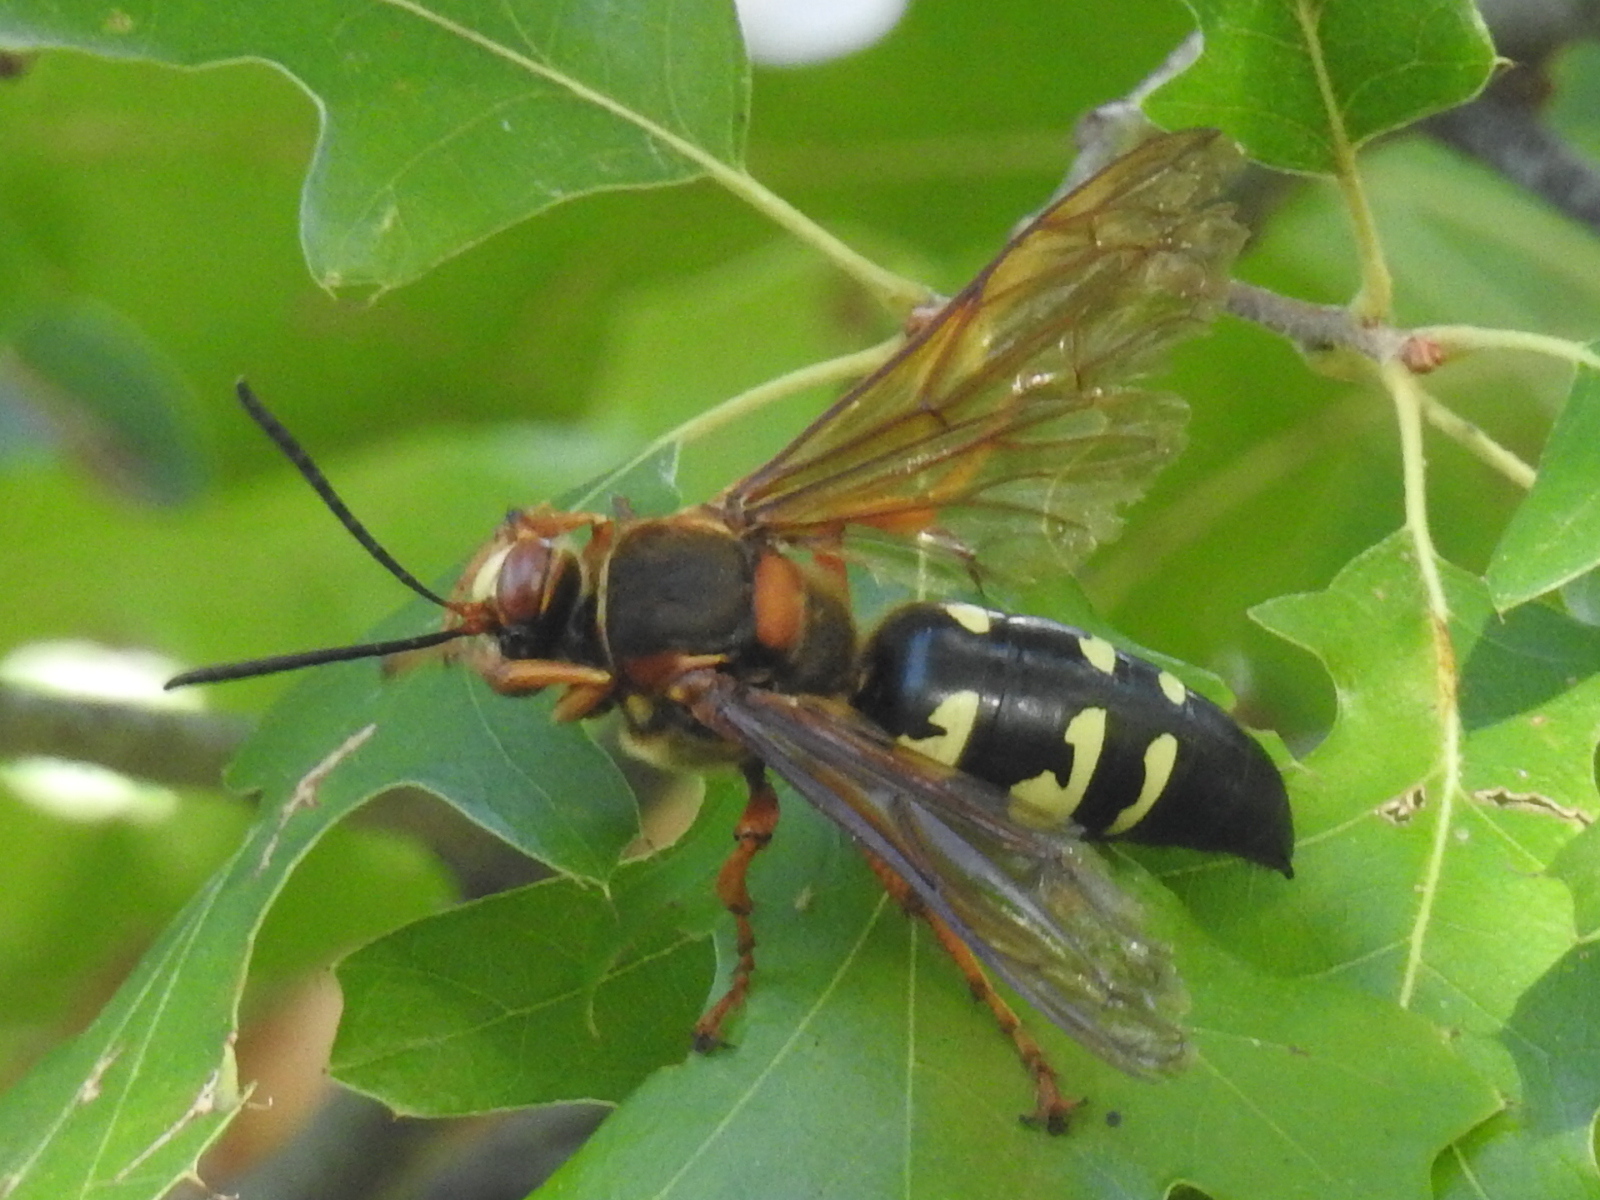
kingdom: Animalia
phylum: Arthropoda
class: Insecta
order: Hymenoptera
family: Crabronidae
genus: Sphecius
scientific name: Sphecius speciosus
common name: Cicada killer
